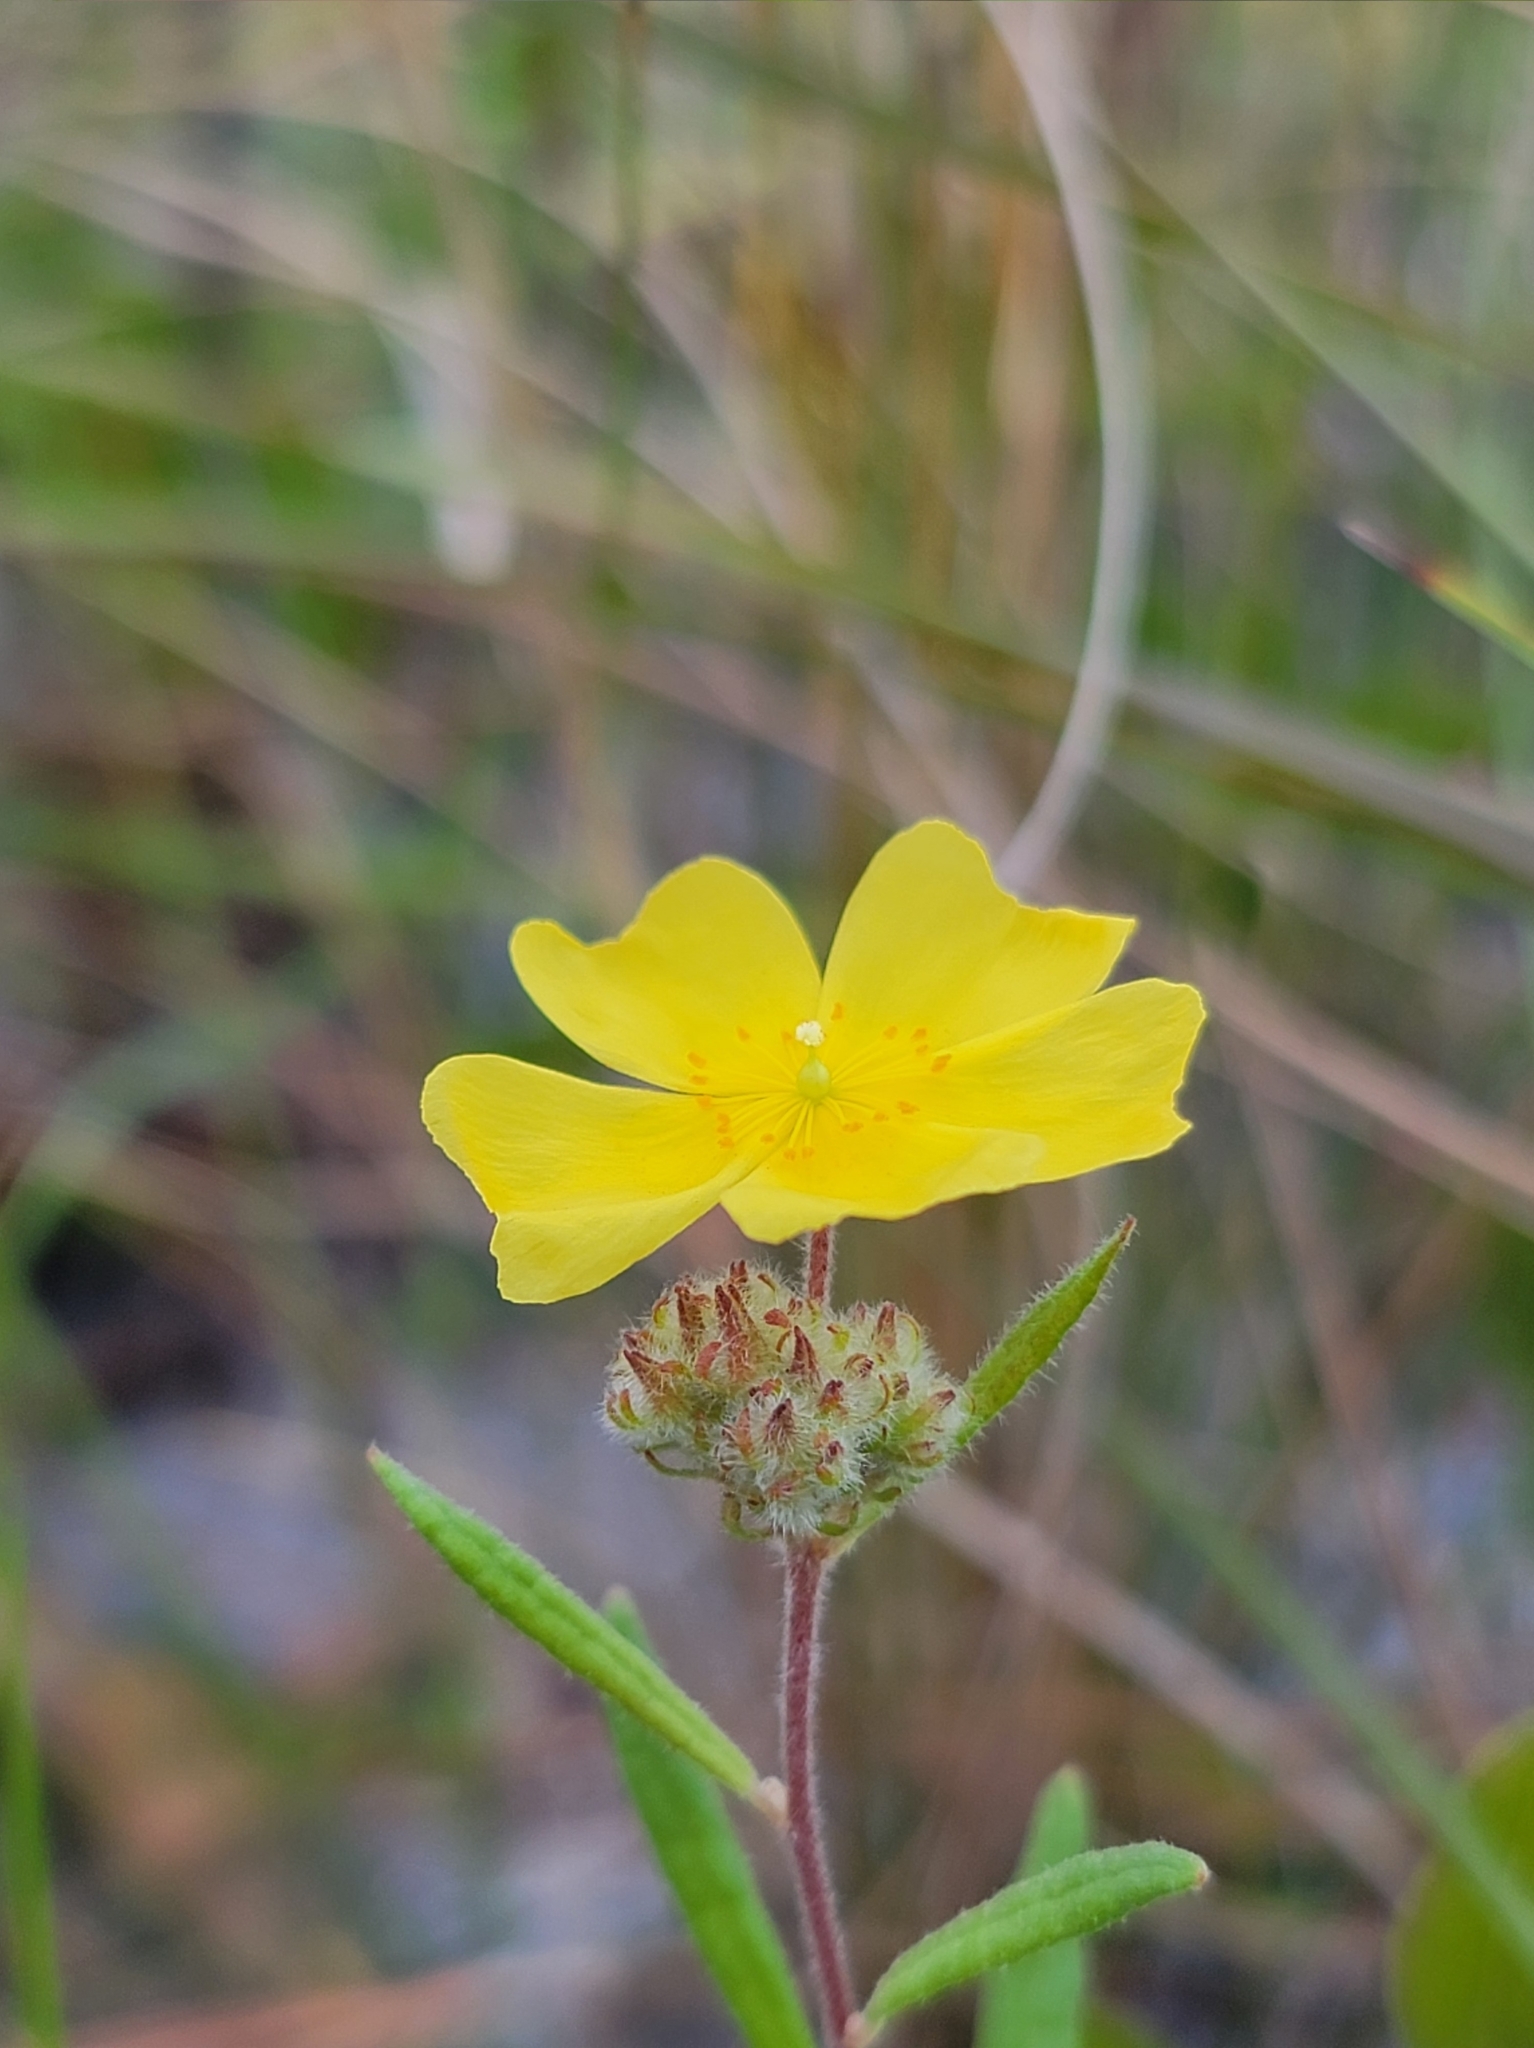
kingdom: Plantae
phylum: Tracheophyta
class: Magnoliopsida
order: Malvales
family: Cistaceae
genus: Crocanthemum
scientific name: Crocanthemum corymbosum
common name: Pinebarren sun-rose
